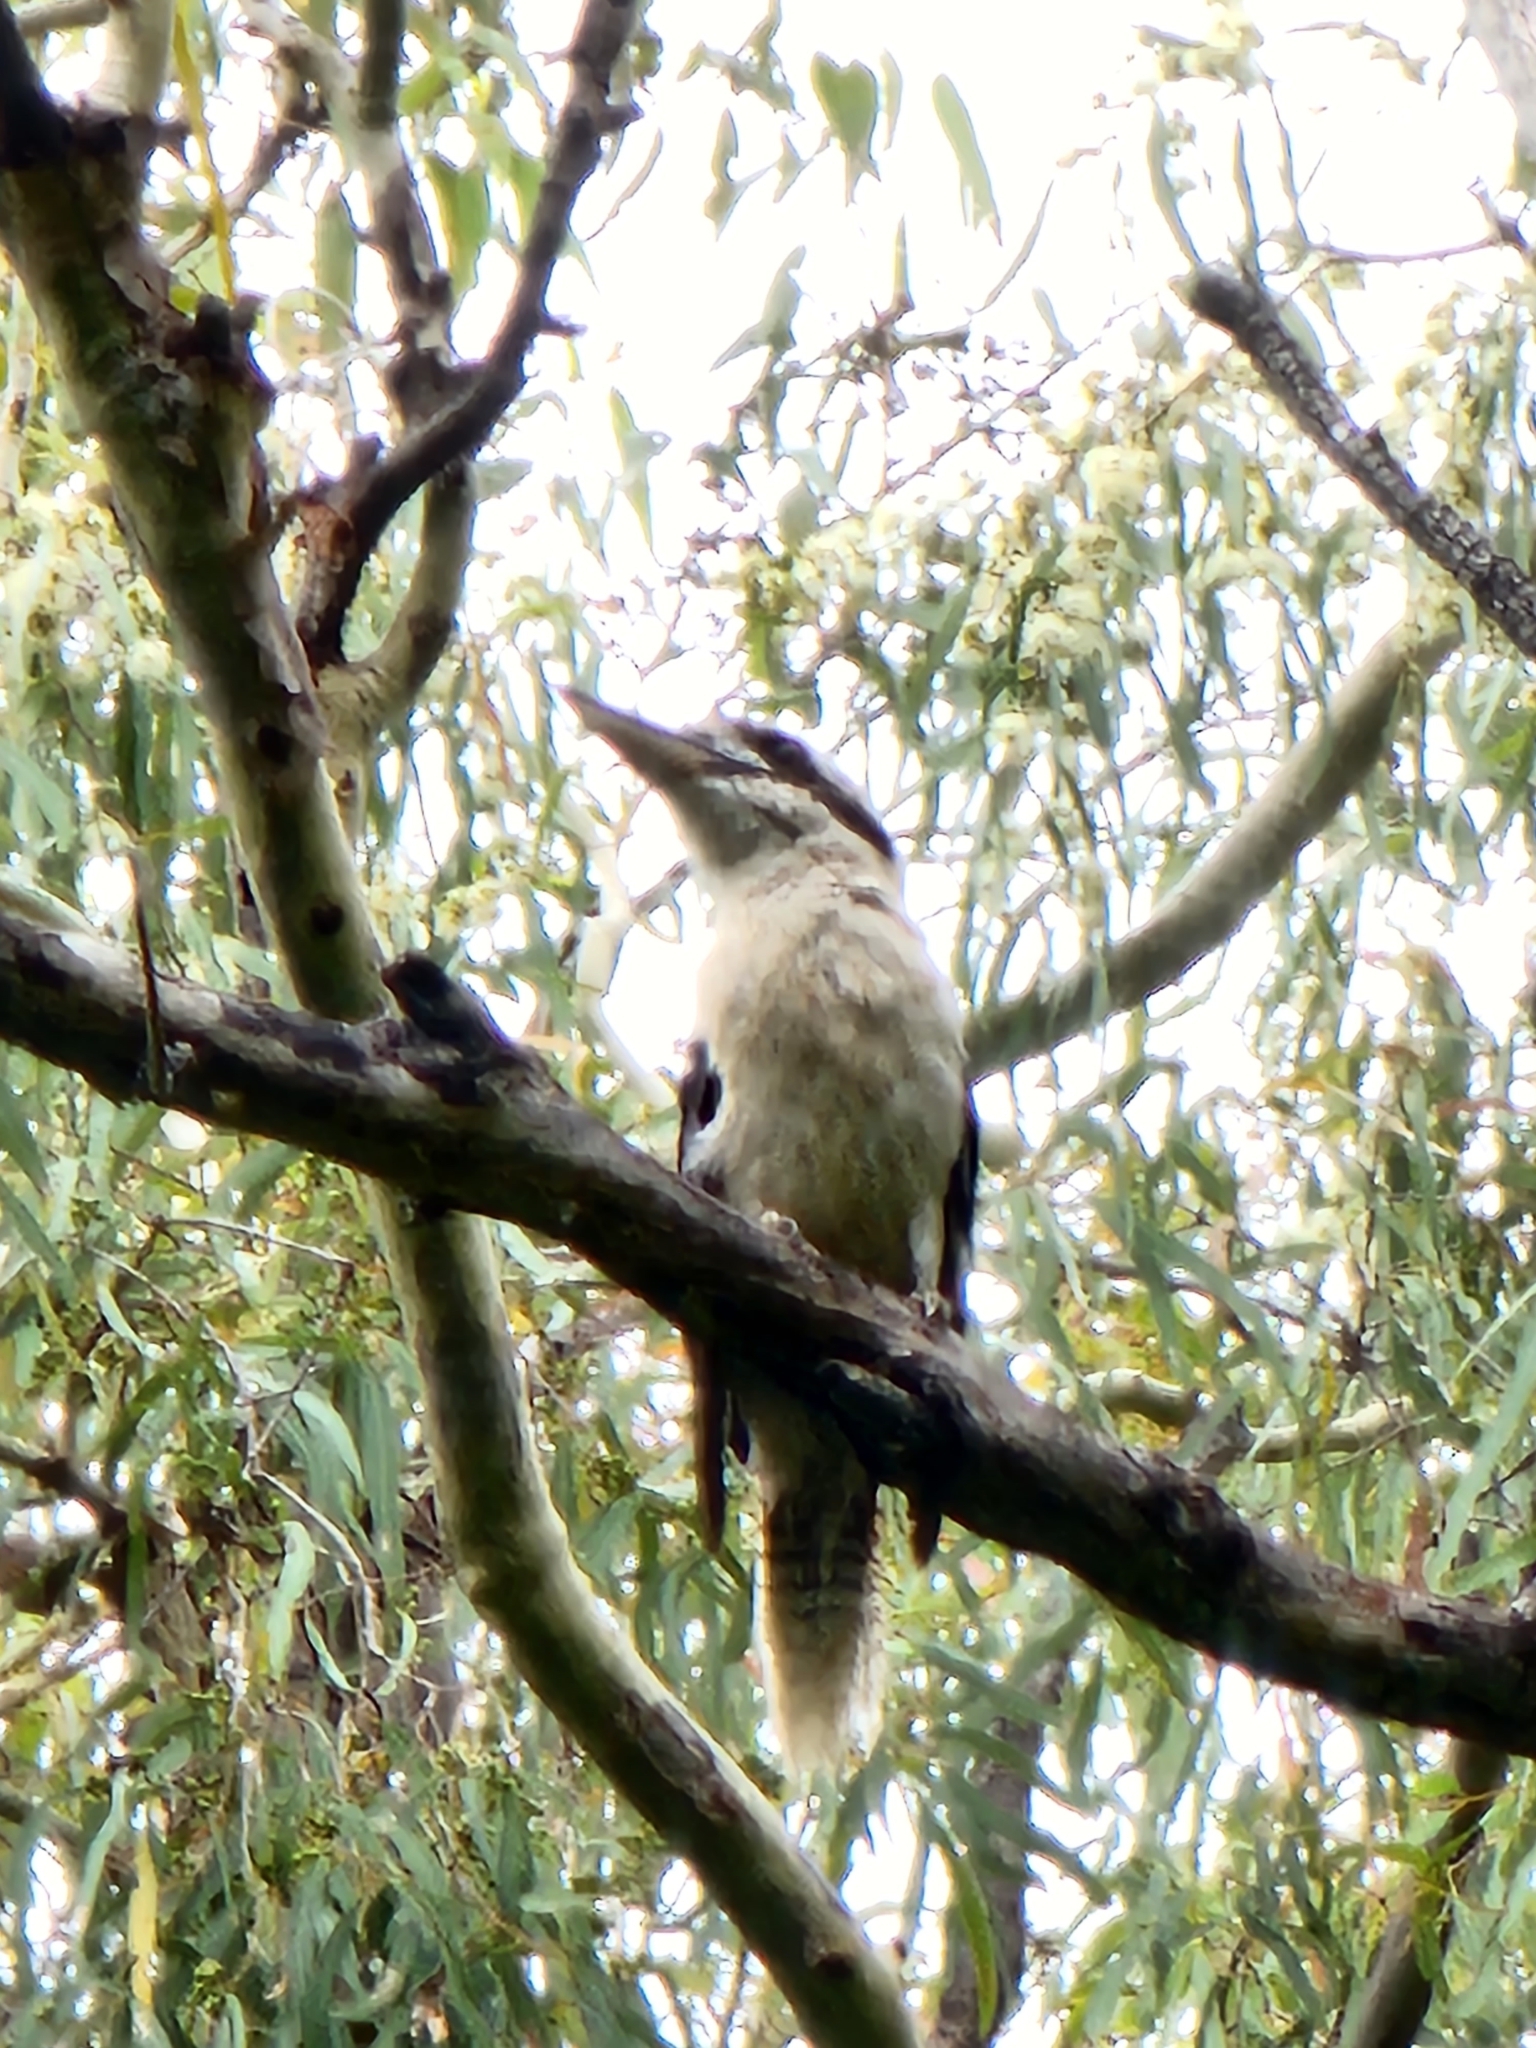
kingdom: Animalia
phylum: Chordata
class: Aves
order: Coraciiformes
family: Alcedinidae
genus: Dacelo
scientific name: Dacelo novaeguineae
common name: Laughing kookaburra
